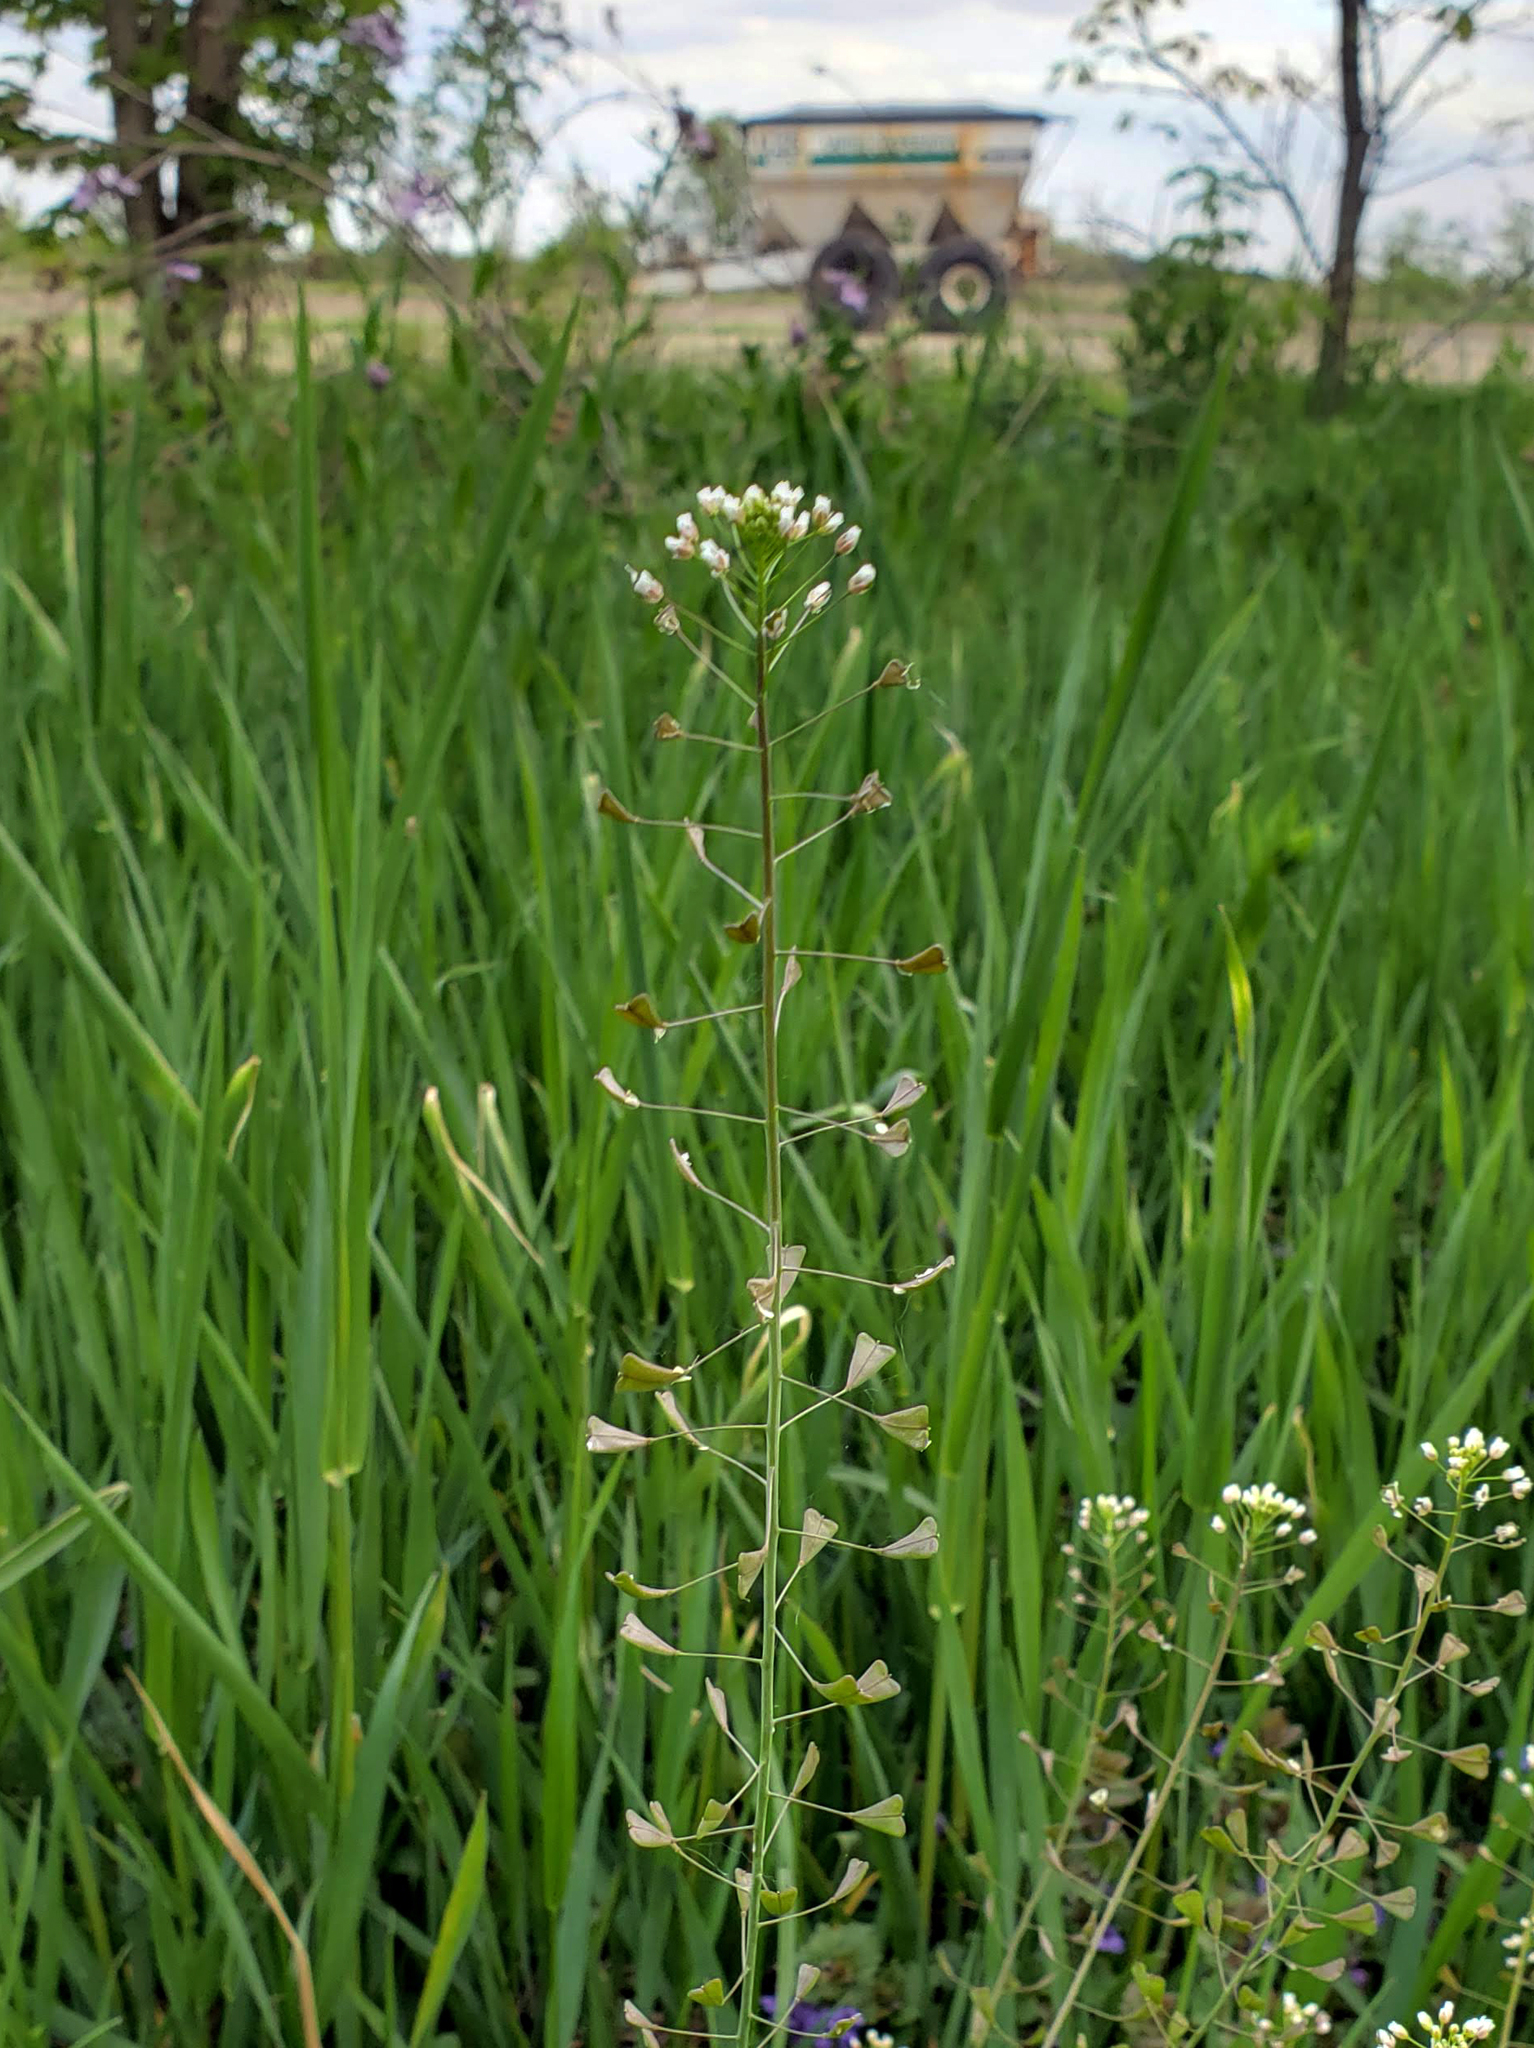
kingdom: Plantae
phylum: Tracheophyta
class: Magnoliopsida
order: Brassicales
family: Brassicaceae
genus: Capsella
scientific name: Capsella bursa-pastoris
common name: Shepherd's purse
